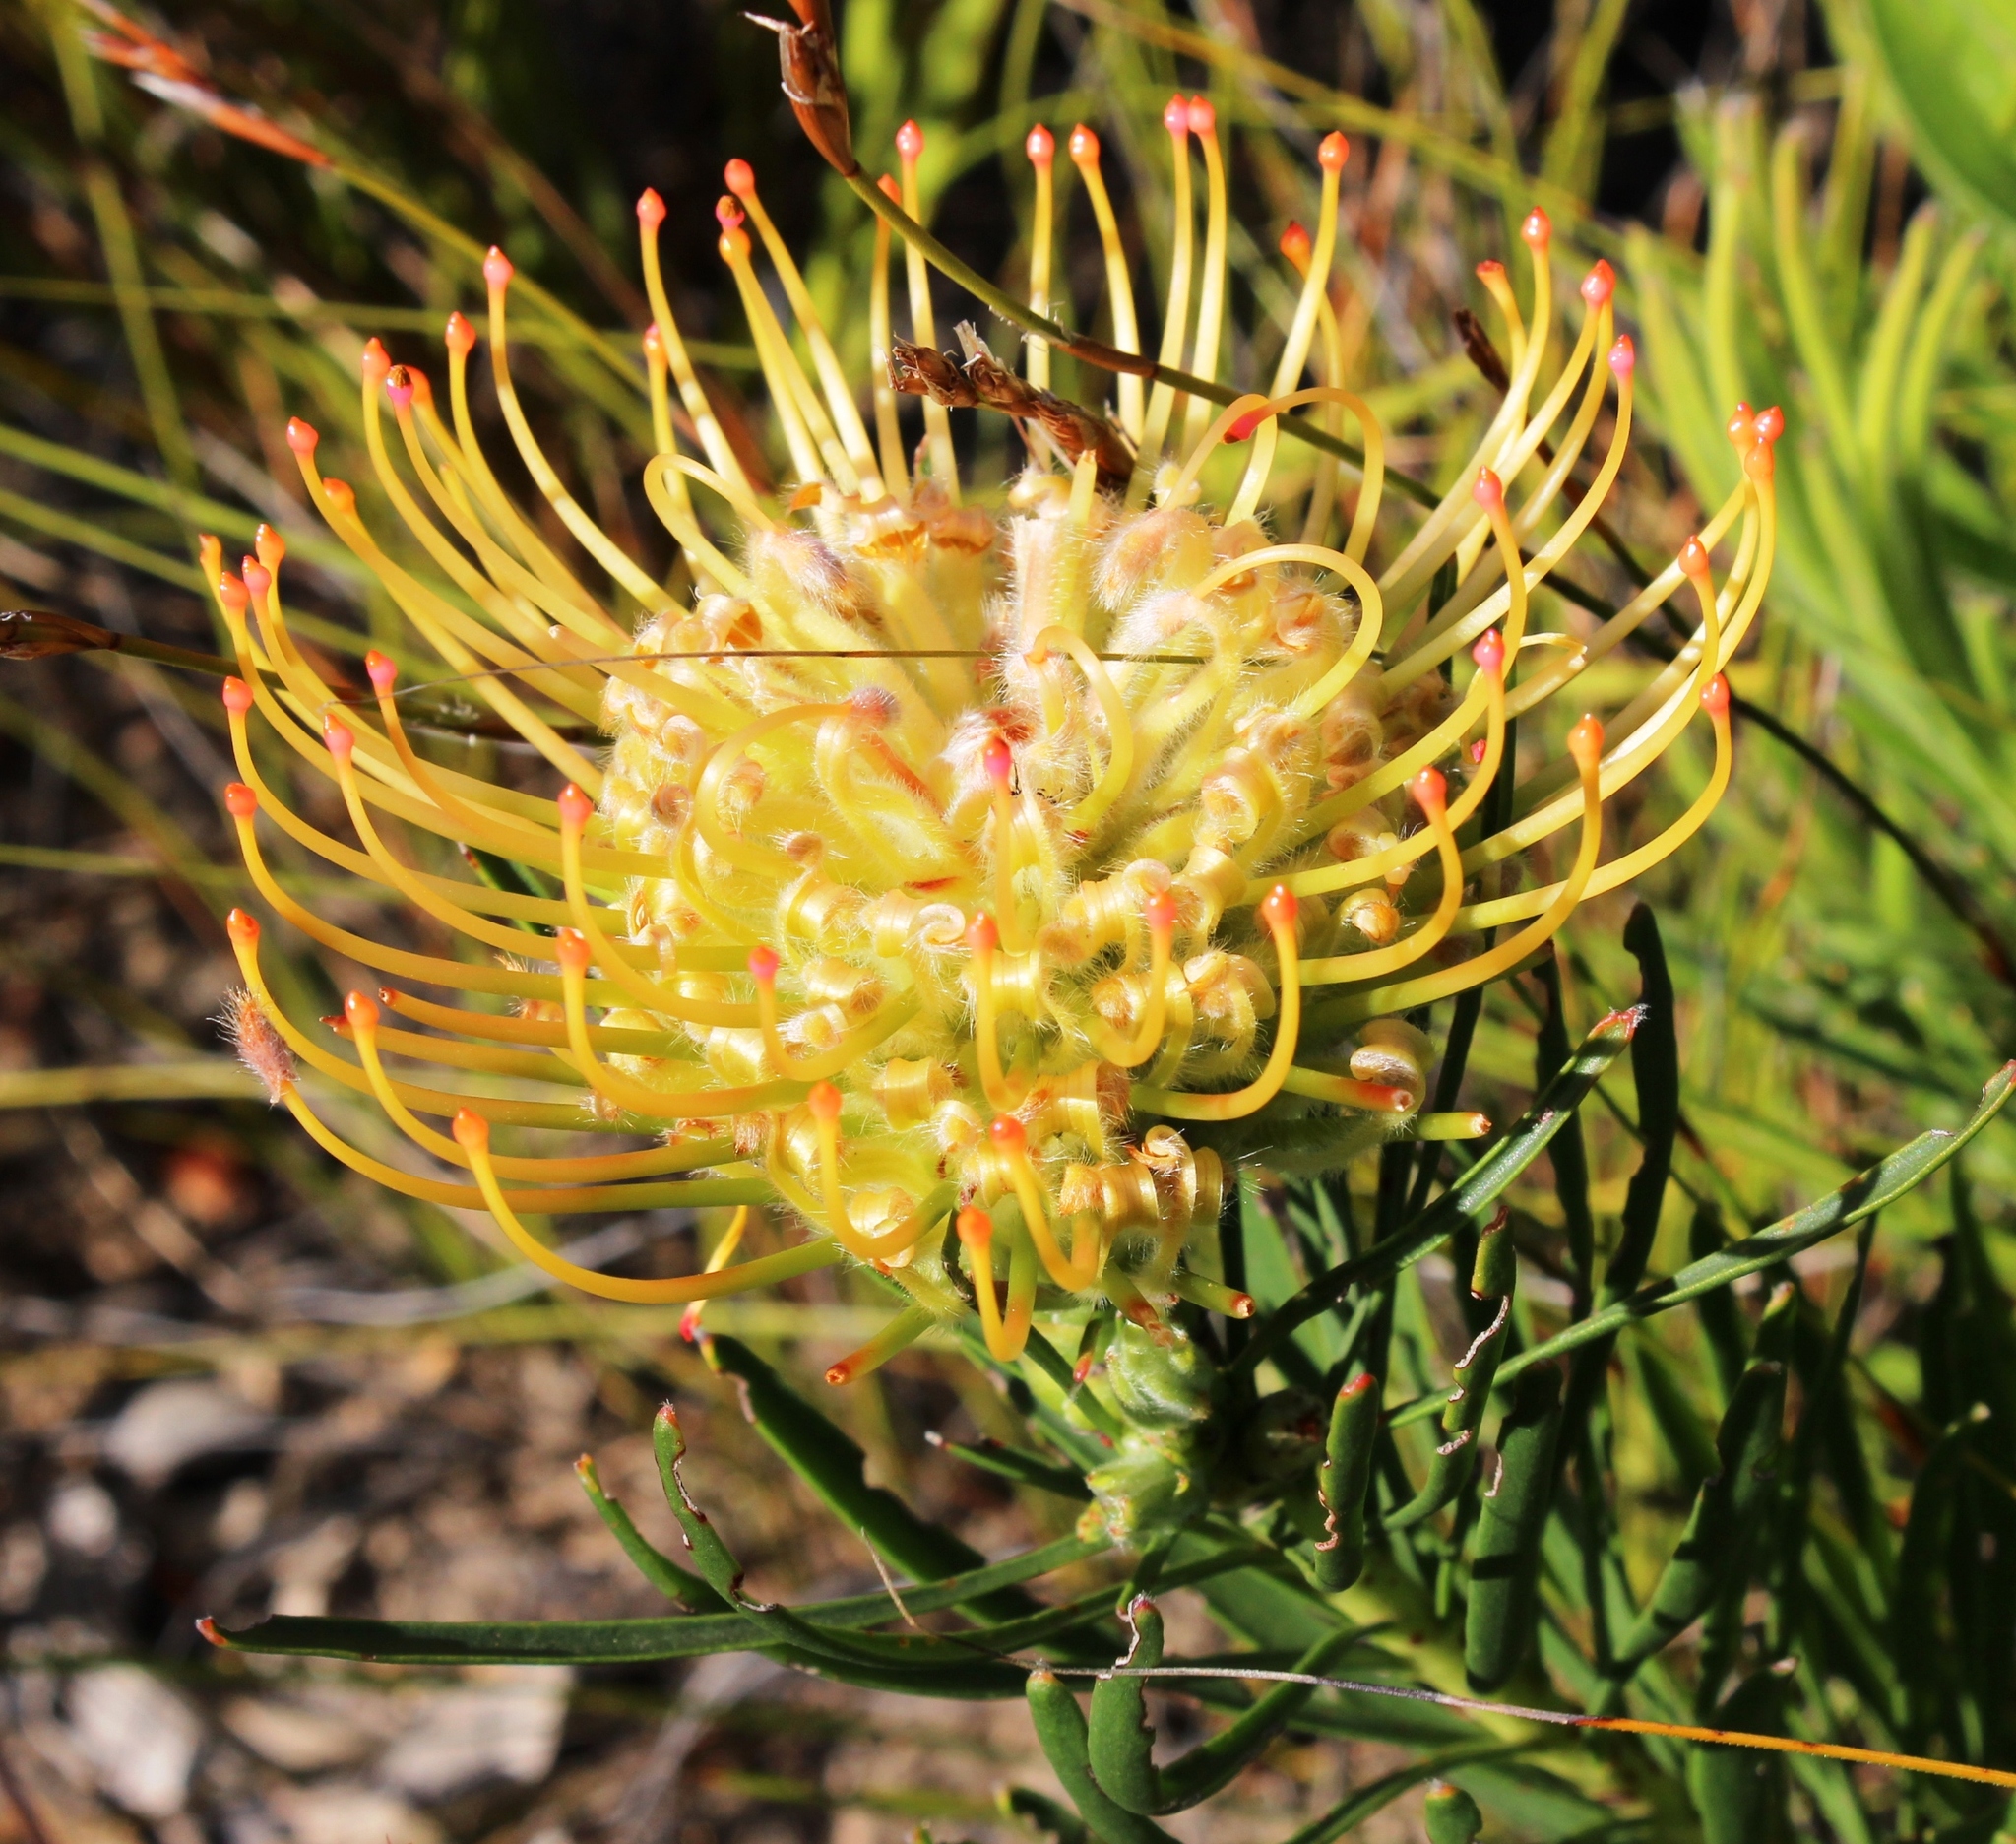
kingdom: Plantae
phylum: Tracheophyta
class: Magnoliopsida
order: Proteales
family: Proteaceae
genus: Leucospermum
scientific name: Leucospermum lineare
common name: Needle-leaf pincushion
